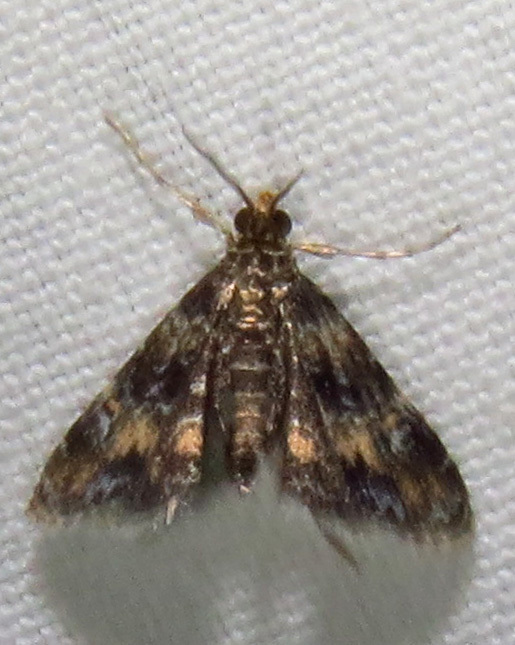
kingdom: Animalia
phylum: Arthropoda
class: Insecta
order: Lepidoptera
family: Crambidae
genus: Elophila
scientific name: Elophila obliteralis
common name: Waterlily leafcutter moth
